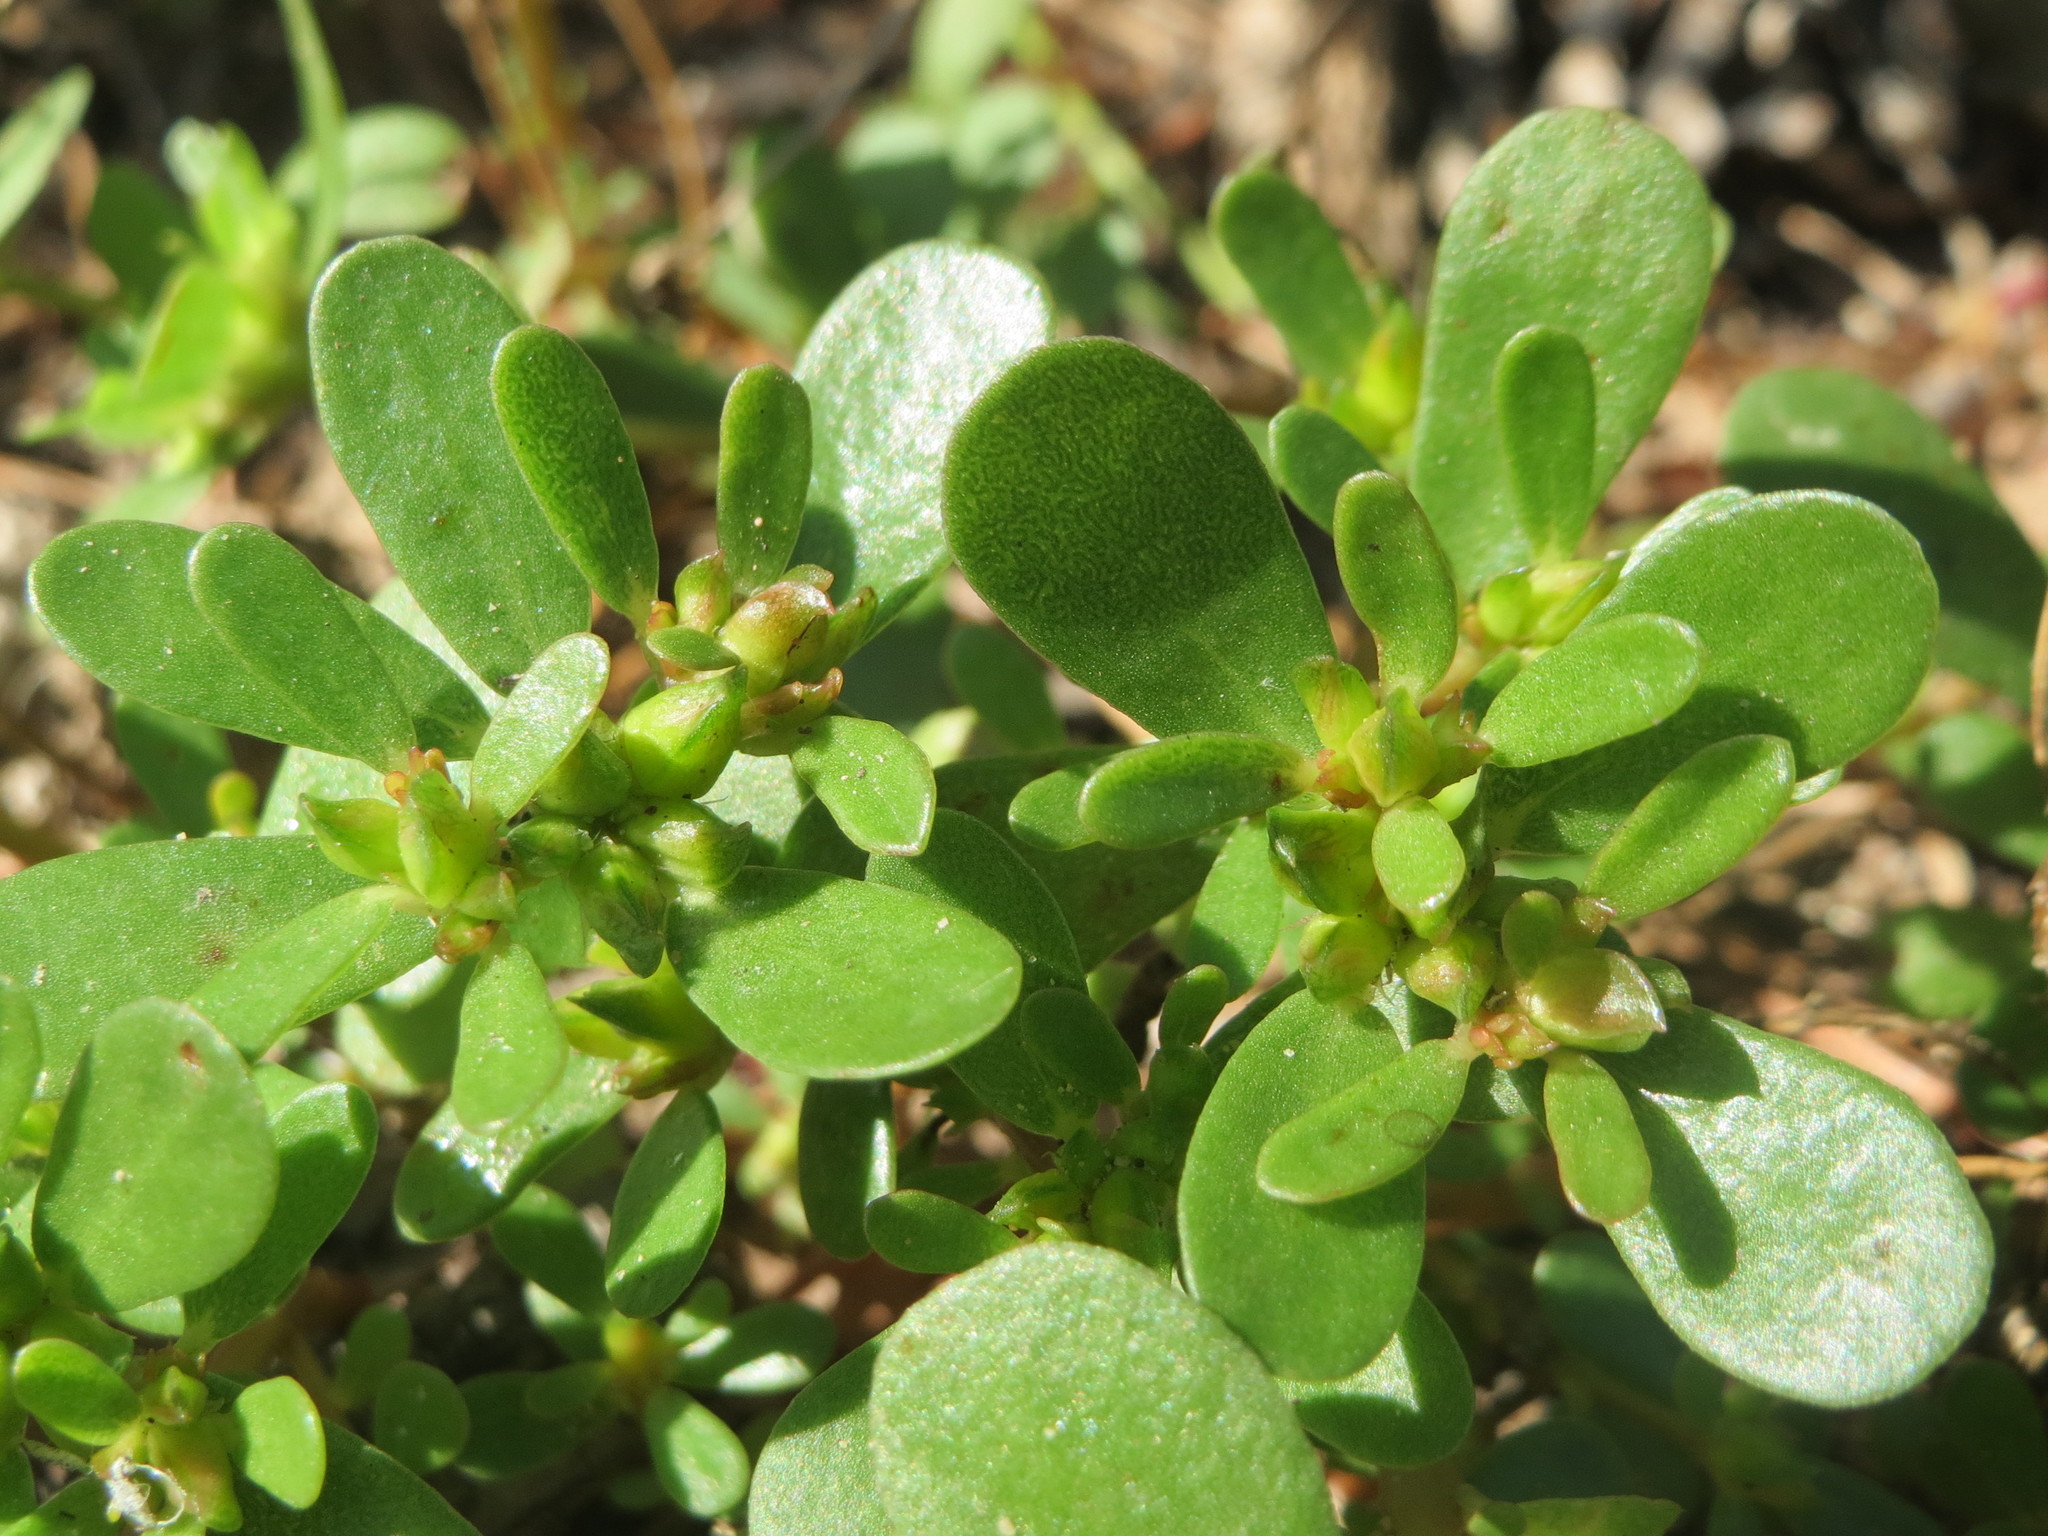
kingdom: Plantae
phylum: Tracheophyta
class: Magnoliopsida
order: Caryophyllales
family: Portulacaceae
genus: Portulaca
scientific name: Portulaca oleracea
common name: Common purslane
